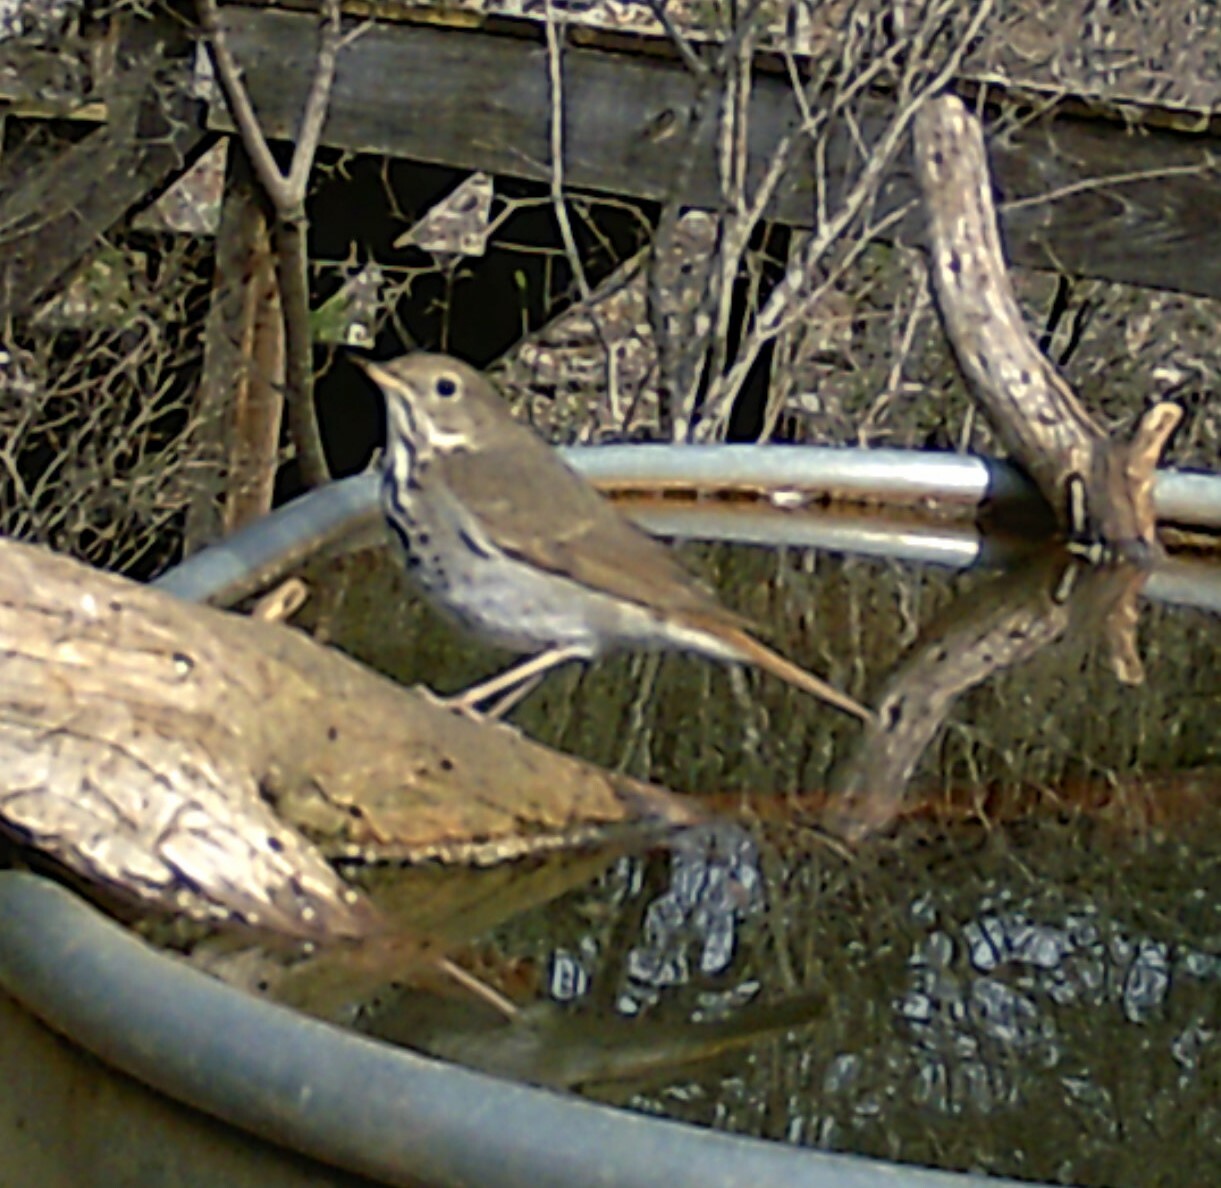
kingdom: Animalia
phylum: Chordata
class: Aves
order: Passeriformes
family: Turdidae
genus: Catharus
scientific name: Catharus guttatus
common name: Hermit thrush
